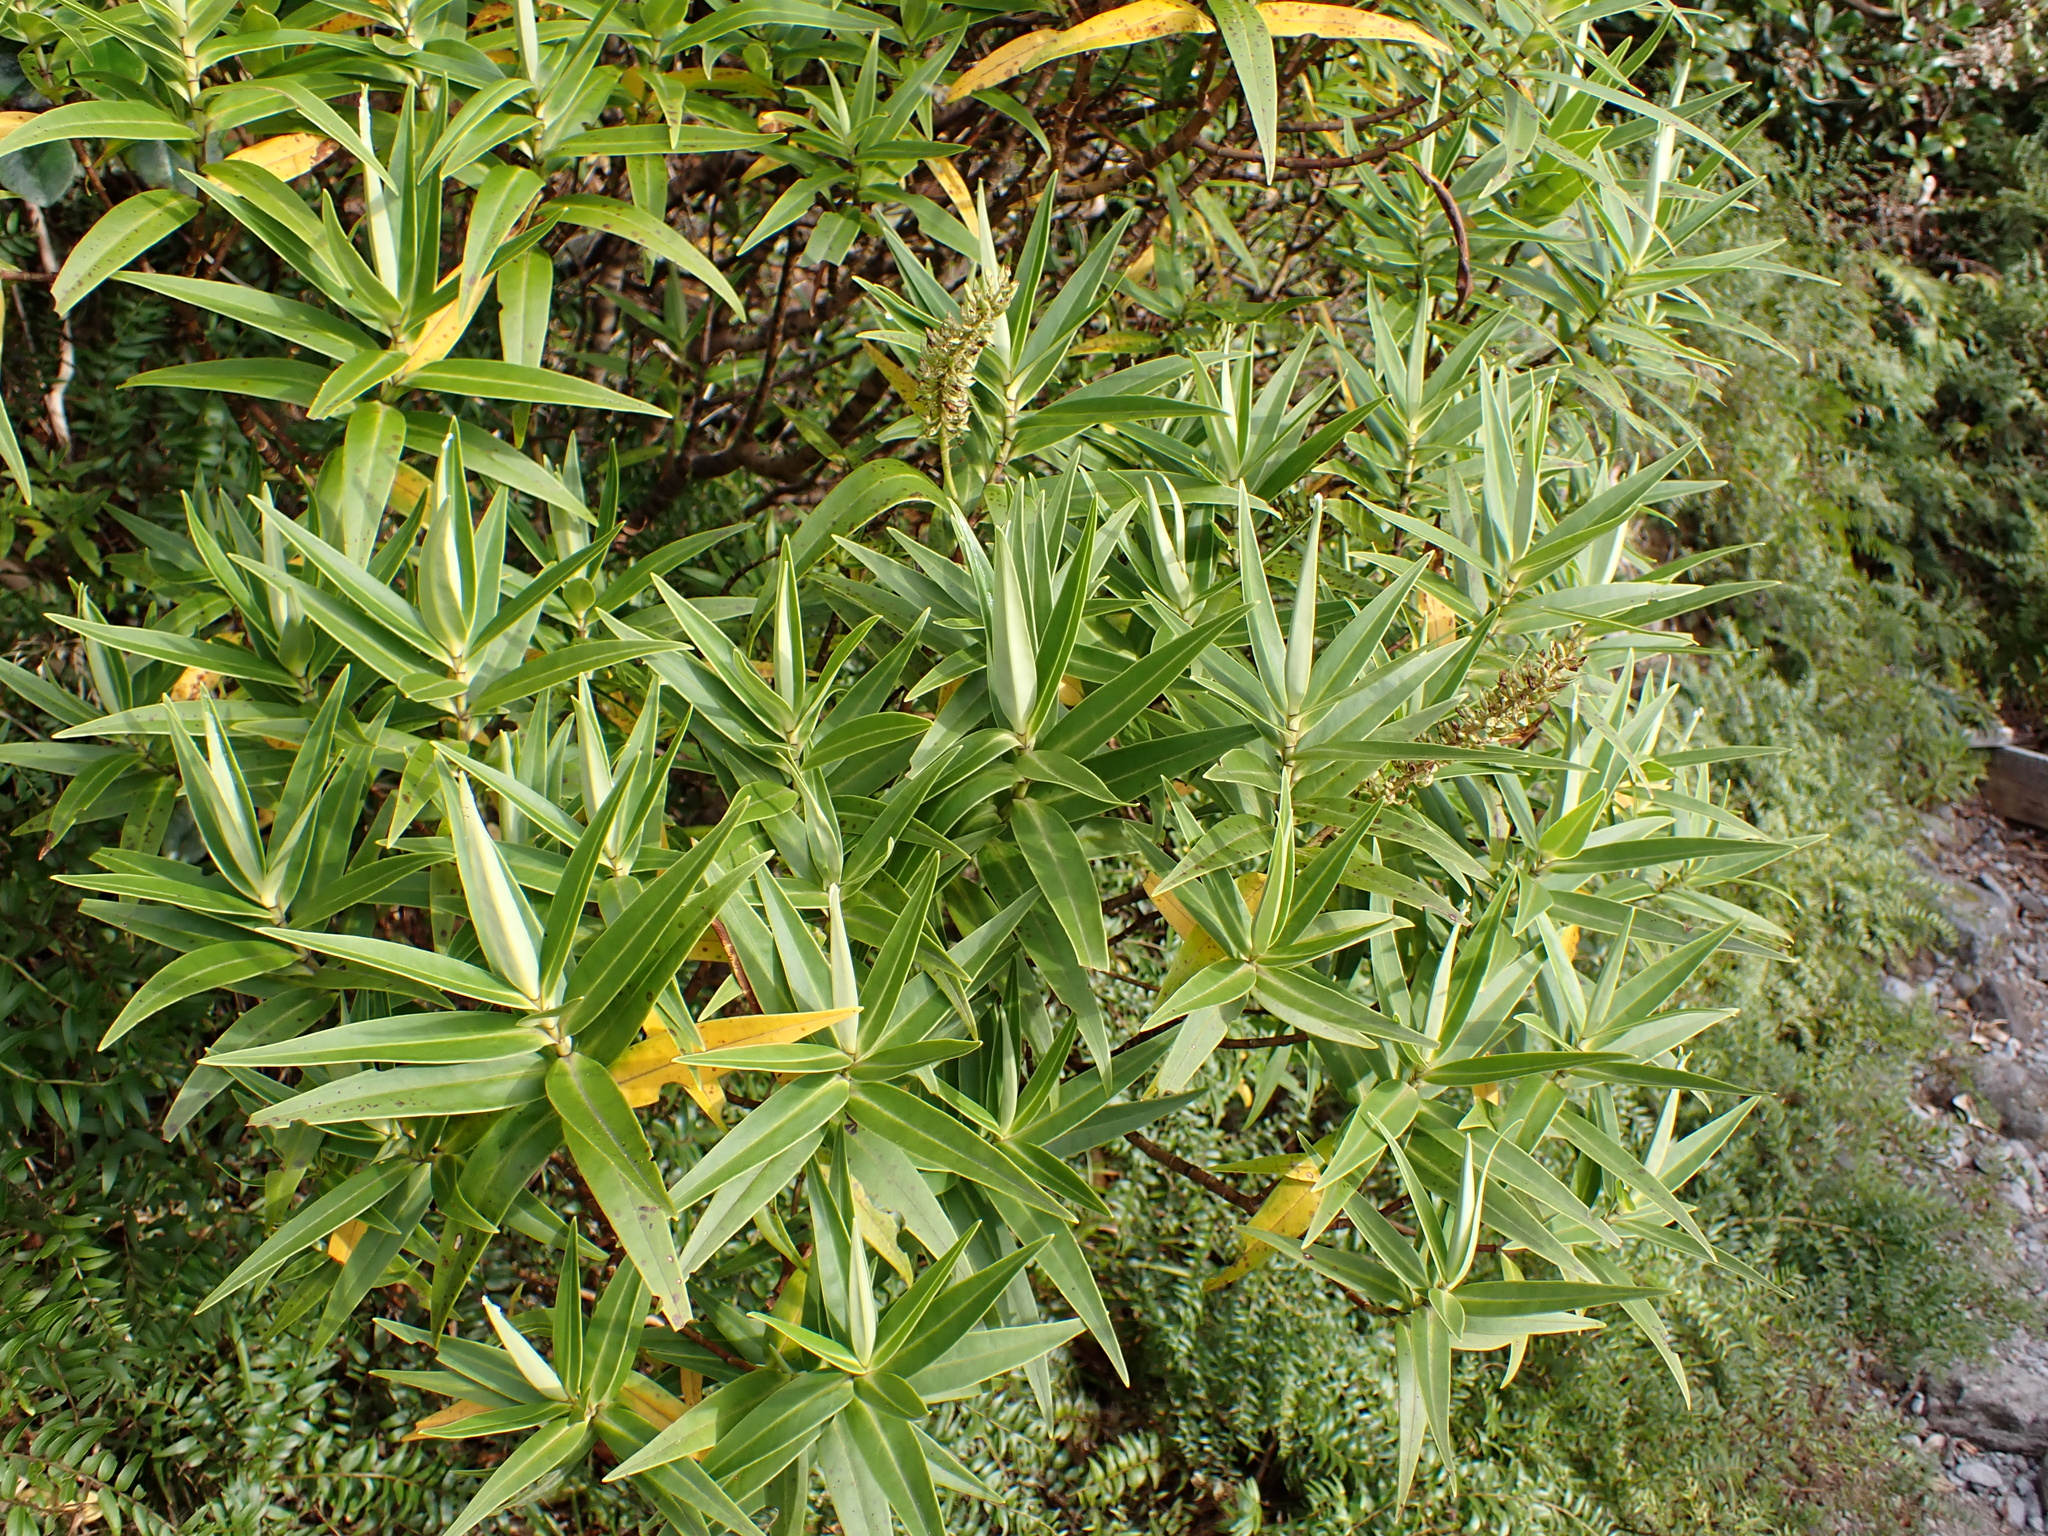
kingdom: Plantae
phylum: Tracheophyta
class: Magnoliopsida
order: Lamiales
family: Plantaginaceae
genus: Veronica
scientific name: Veronica stricta
